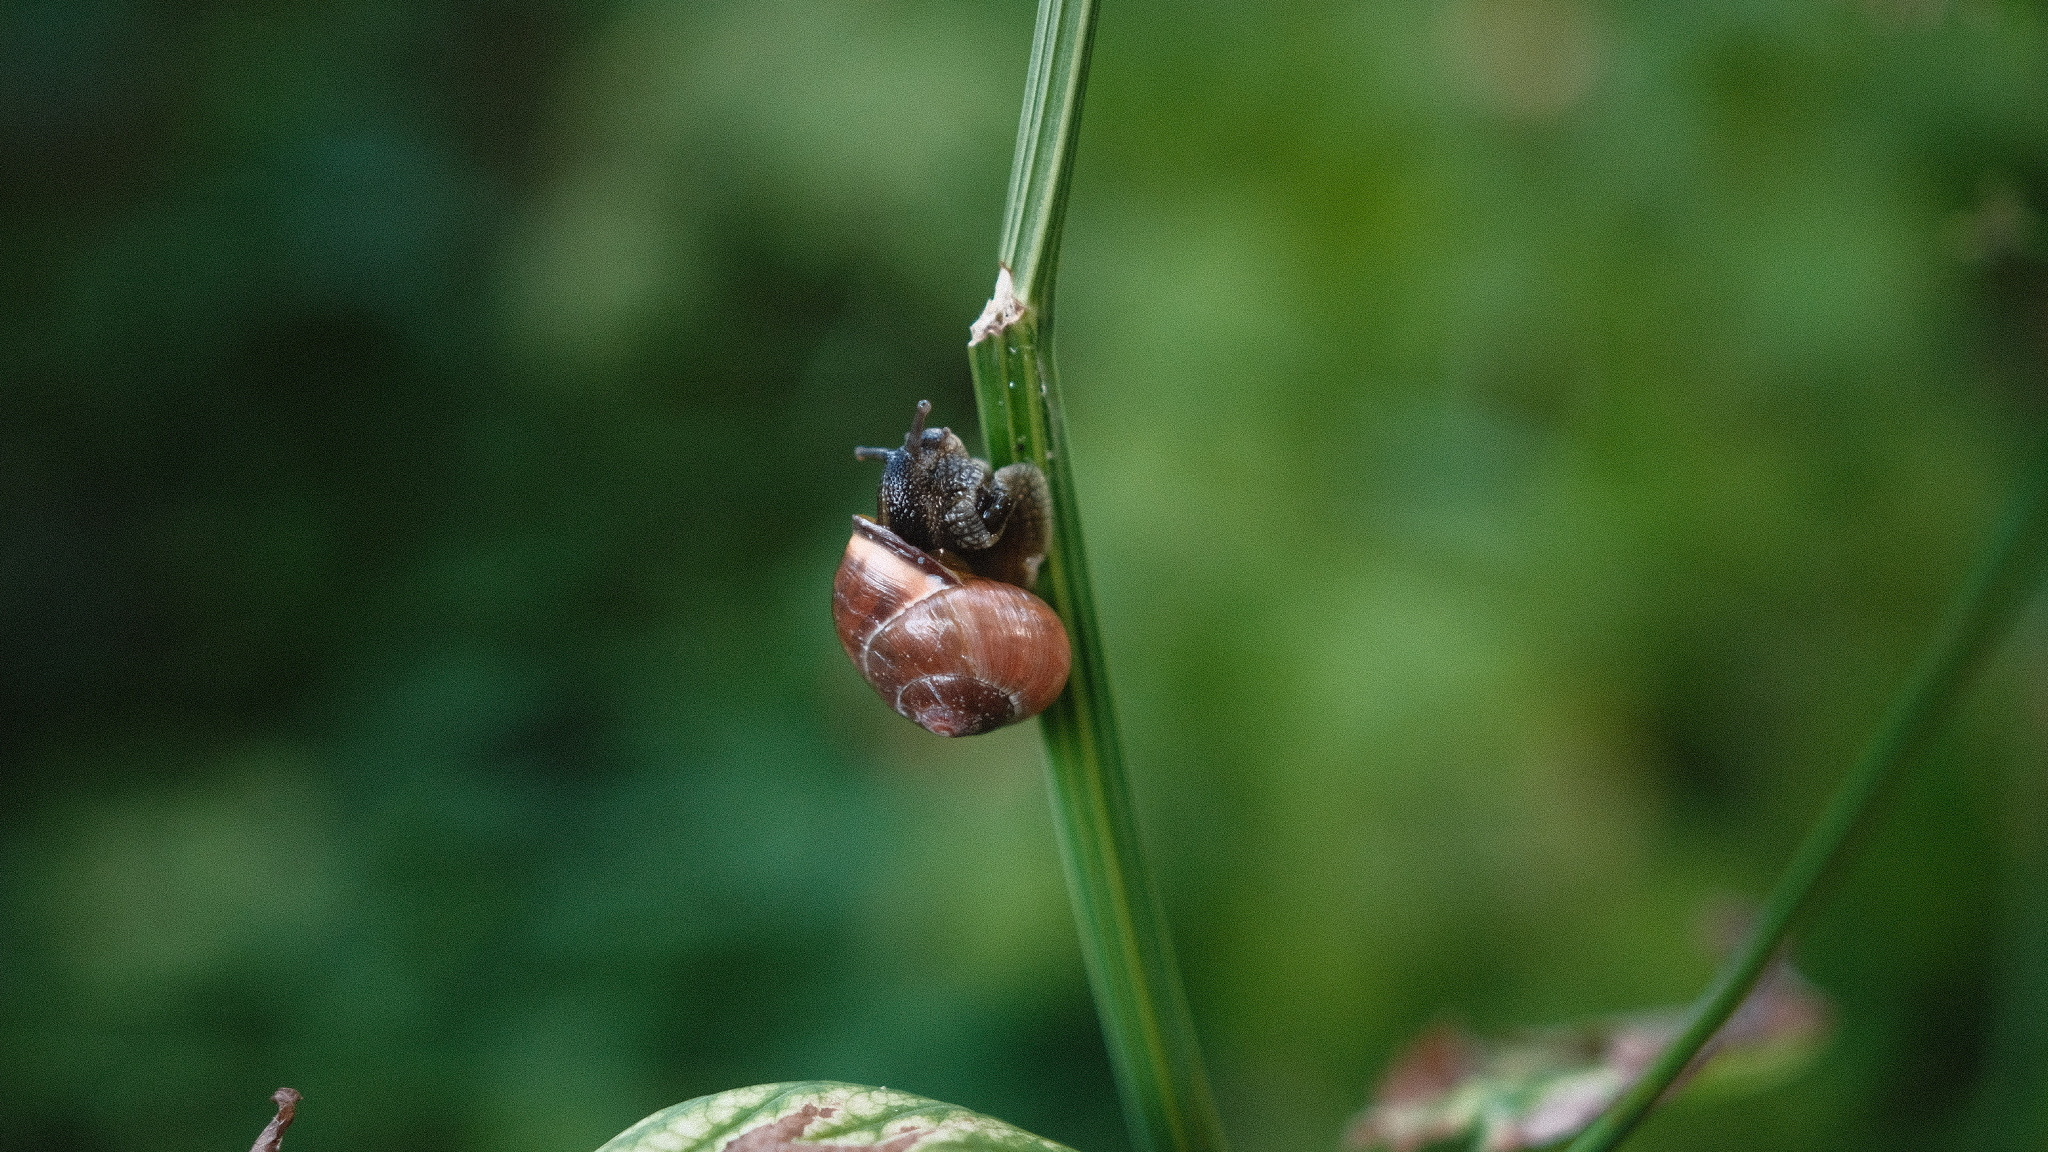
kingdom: Animalia
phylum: Mollusca
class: Gastropoda
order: Stylommatophora
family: Helicidae
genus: Cepaea
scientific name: Cepaea nemoralis
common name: Grovesnail
